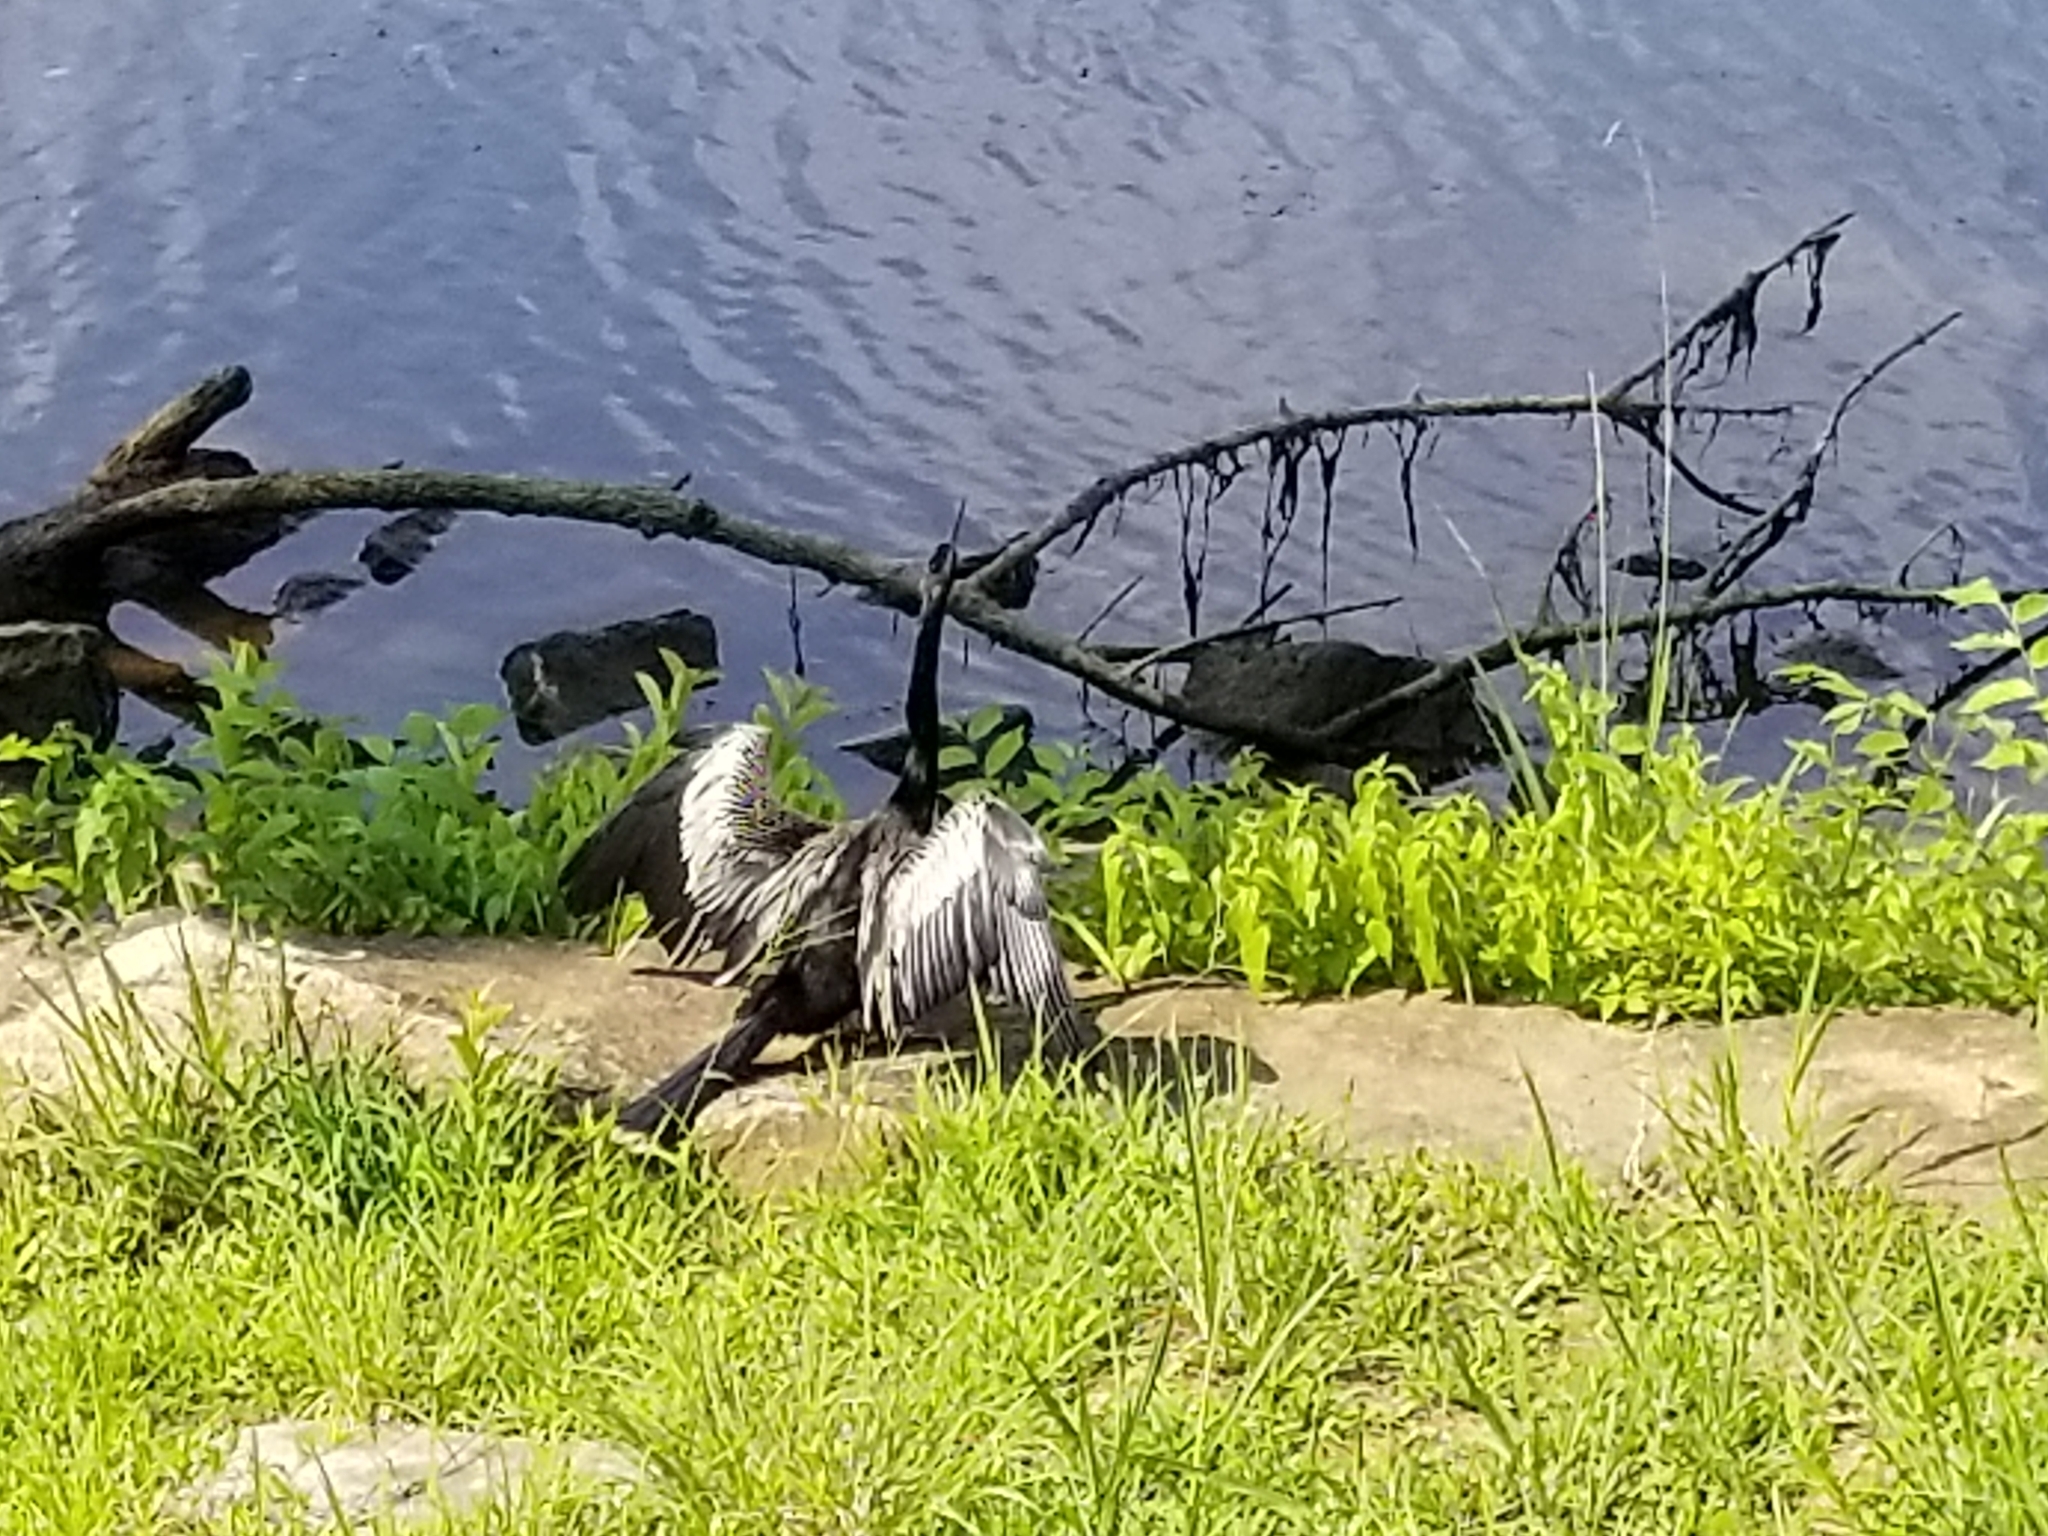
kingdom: Animalia
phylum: Chordata
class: Aves
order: Suliformes
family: Anhingidae
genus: Anhinga
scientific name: Anhinga anhinga
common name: Anhinga
